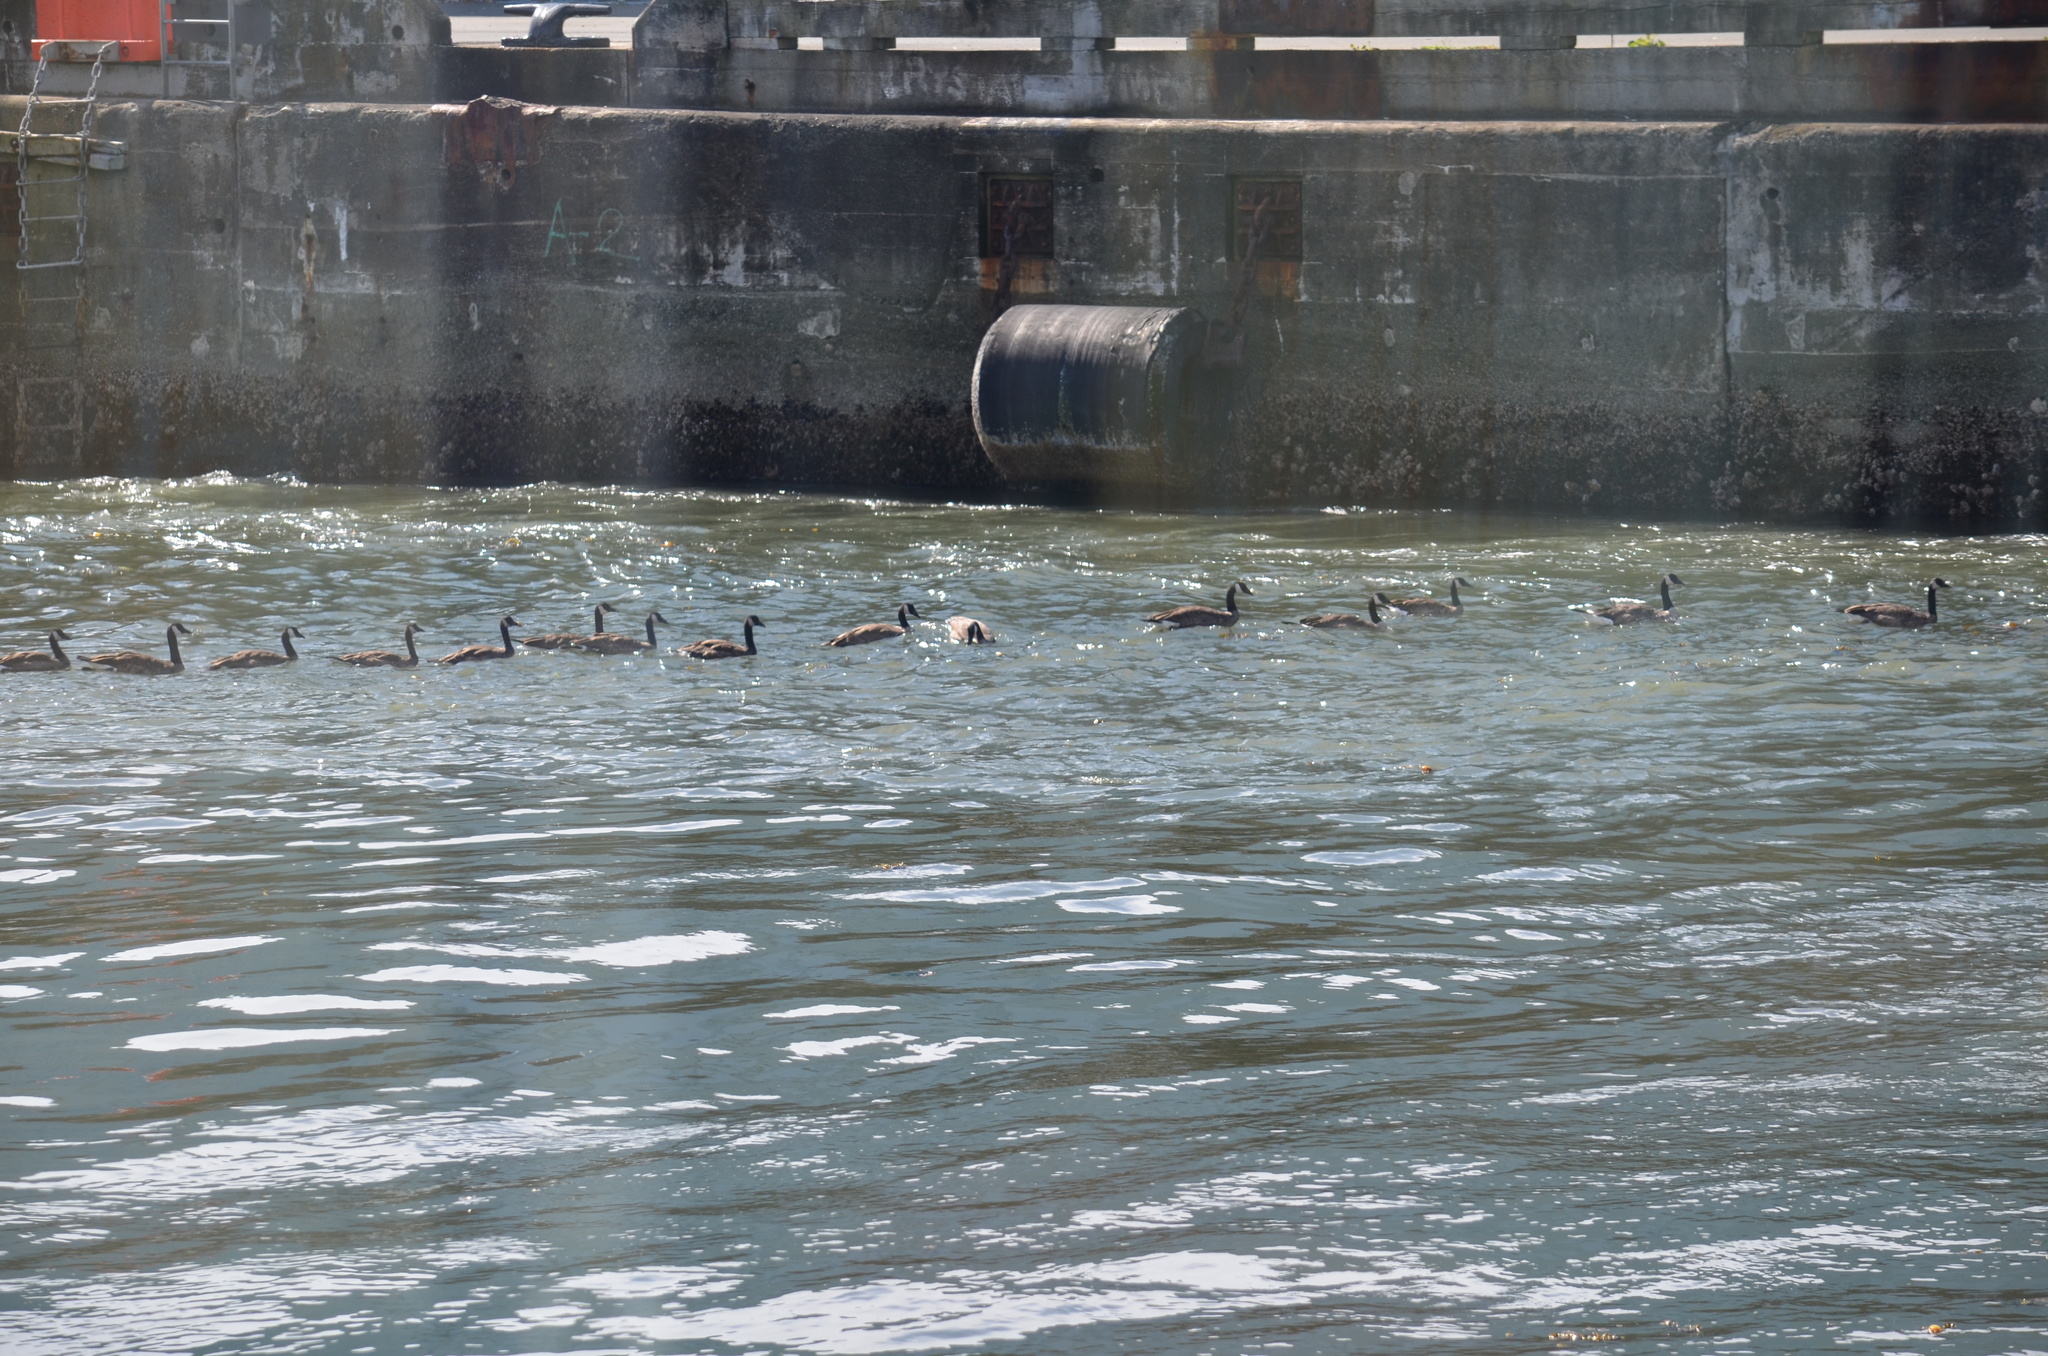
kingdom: Animalia
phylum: Chordata
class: Aves
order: Anseriformes
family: Anatidae
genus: Branta
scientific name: Branta canadensis
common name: Canada goose
